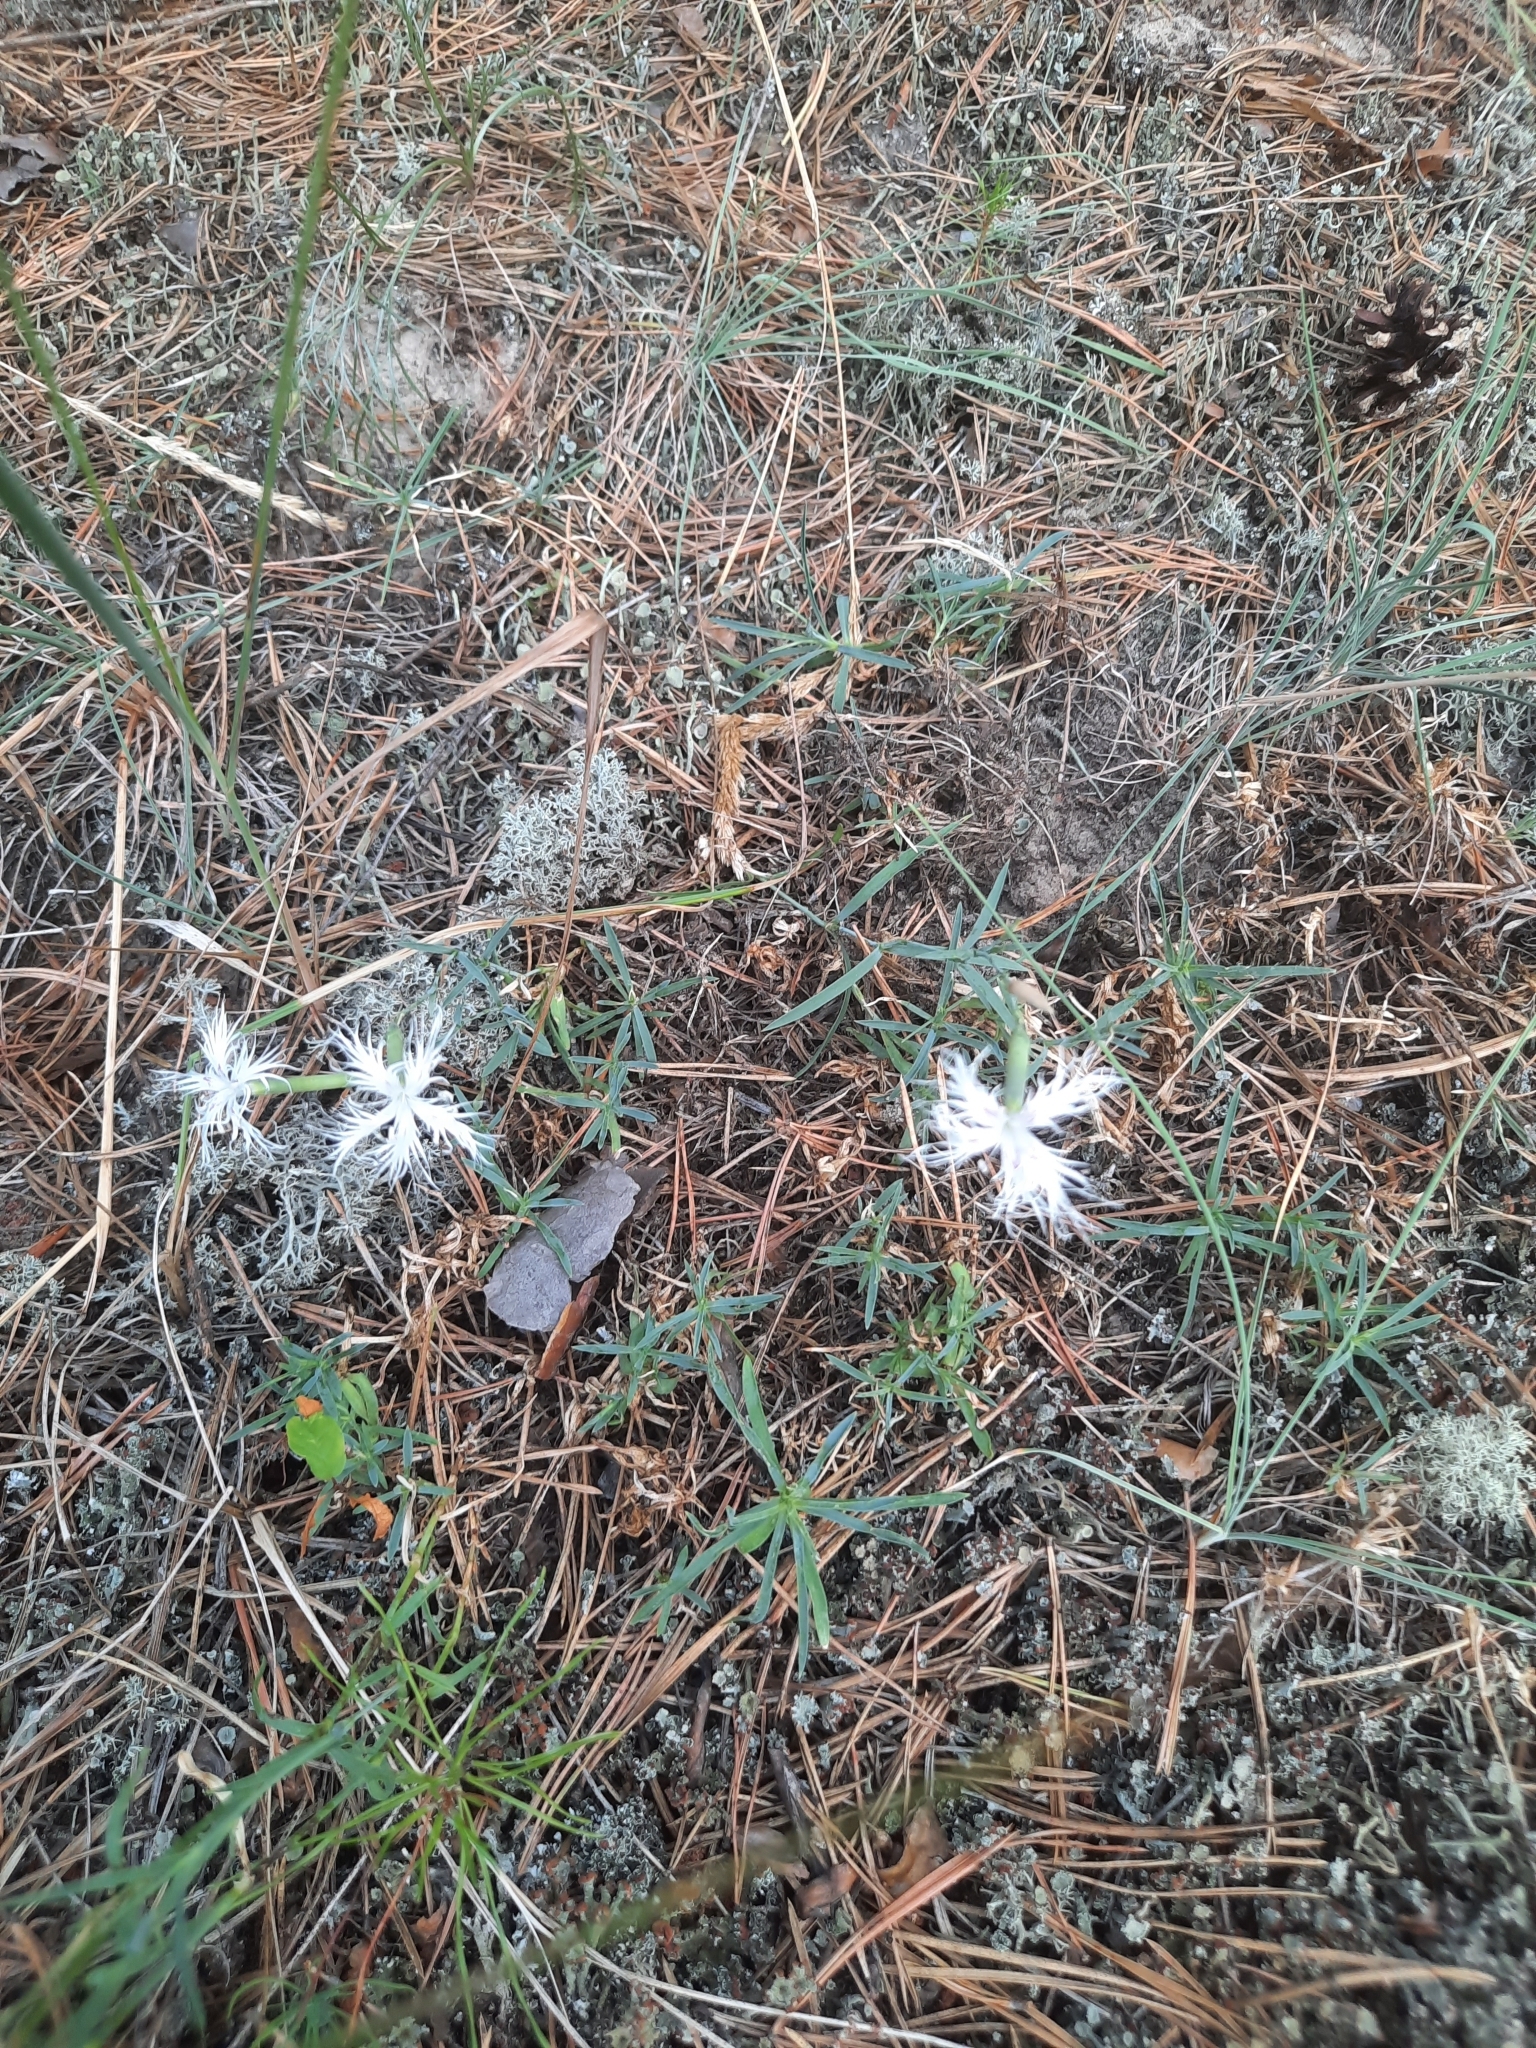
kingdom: Plantae
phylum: Tracheophyta
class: Magnoliopsida
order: Caryophyllales
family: Caryophyllaceae
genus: Dianthus
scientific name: Dianthus arenarius
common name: Stone pink
